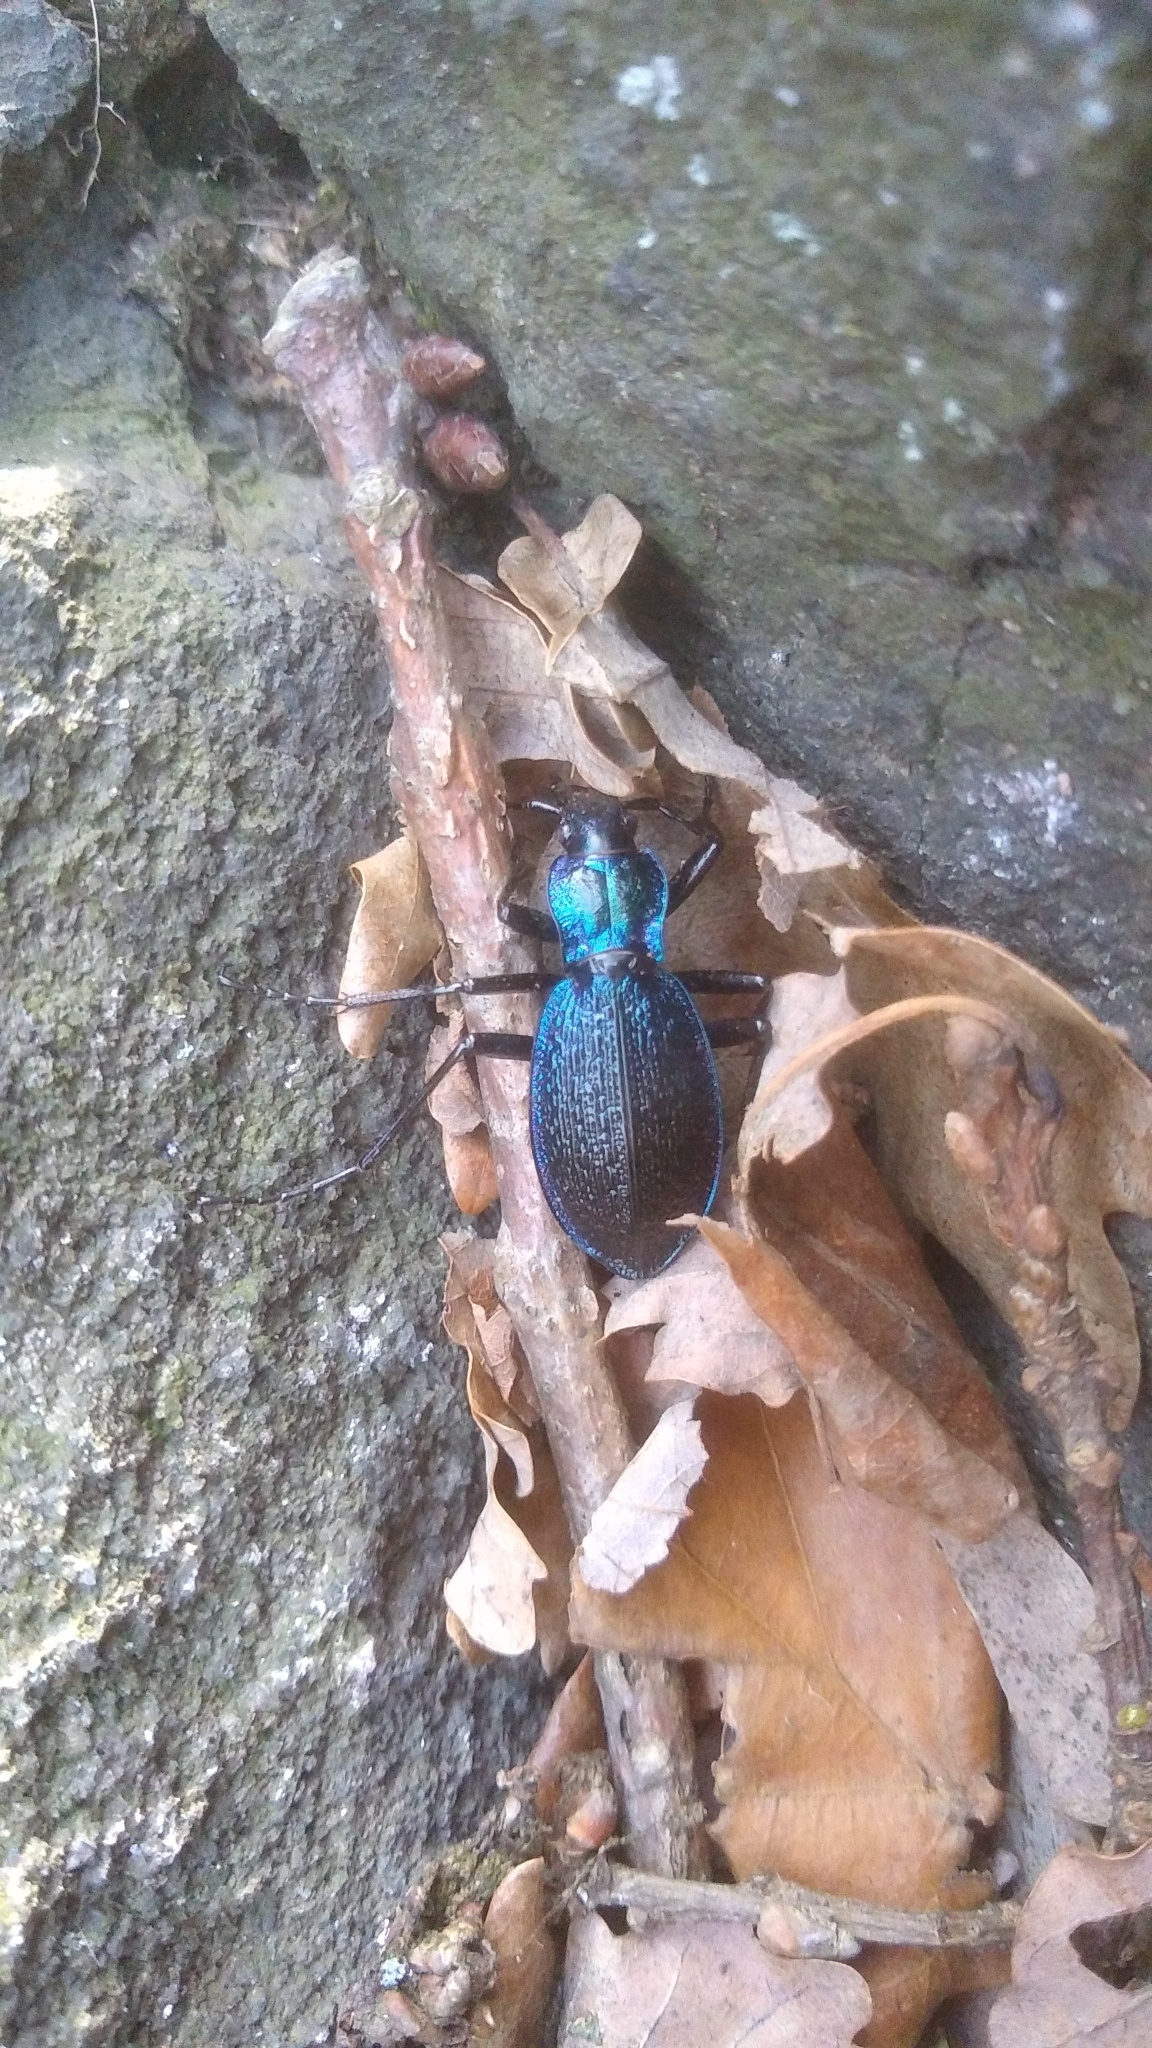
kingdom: Animalia
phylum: Arthropoda
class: Insecta
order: Coleoptera
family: Carabidae
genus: Carabus
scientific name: Carabus intricatus
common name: Blue ground beetle
